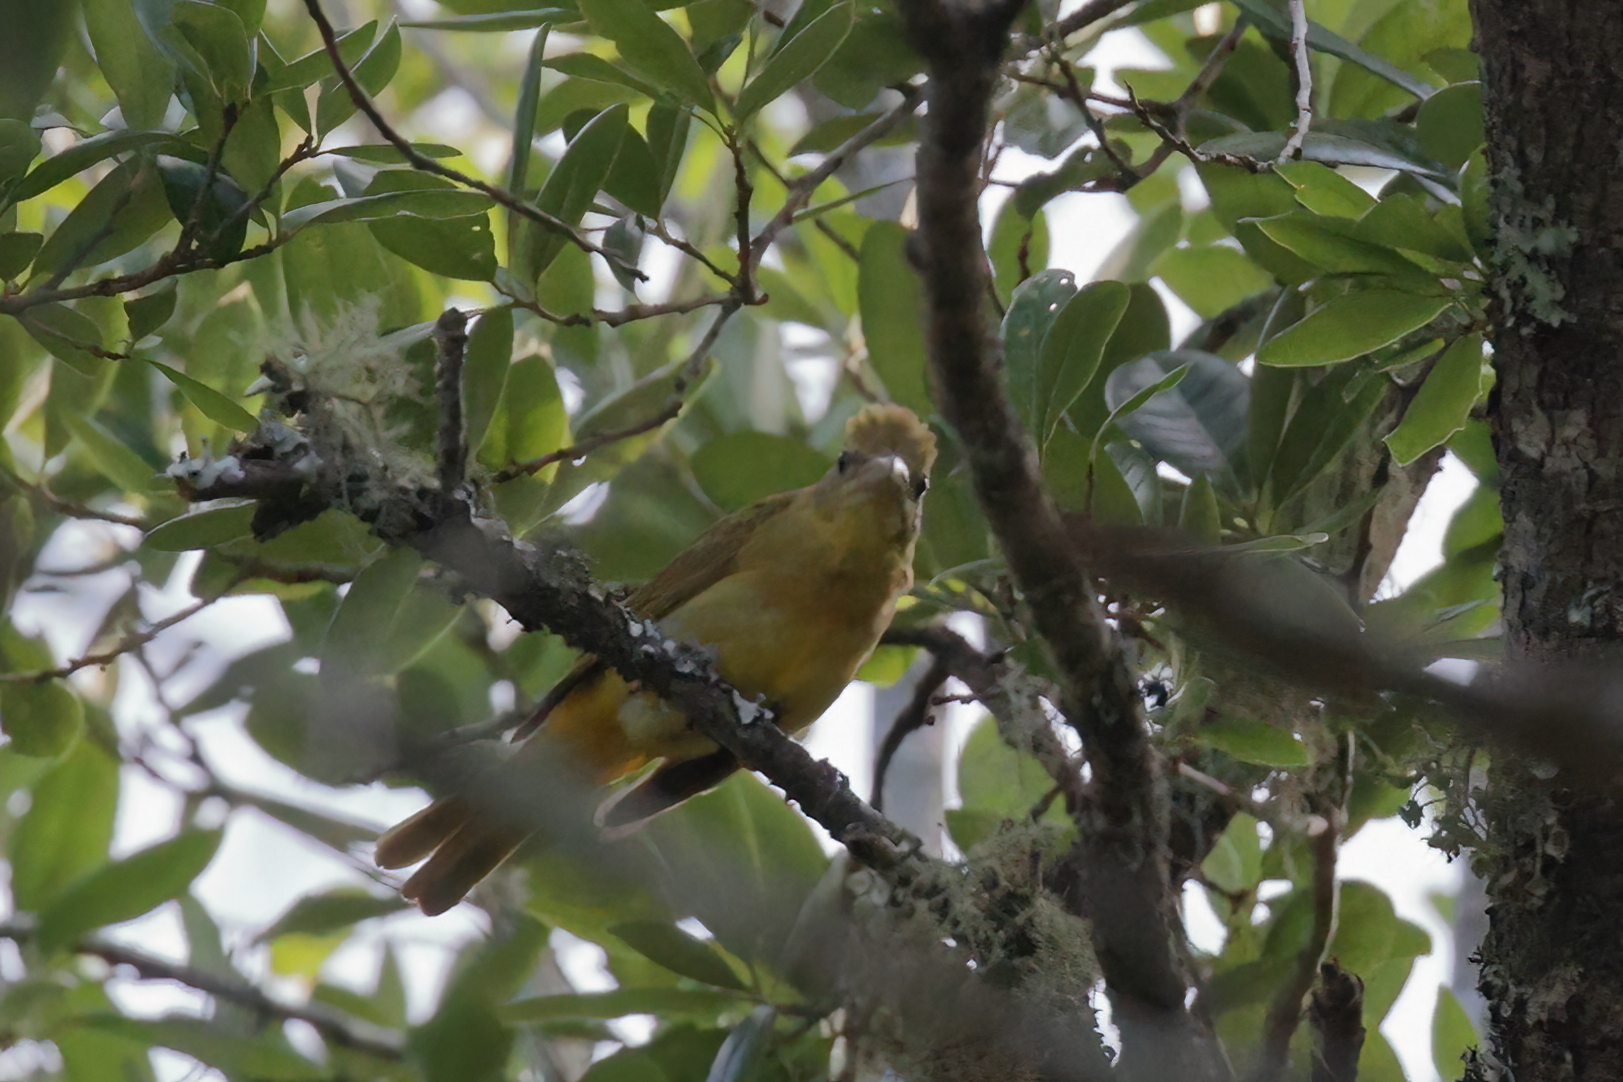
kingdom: Animalia
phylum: Chordata
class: Aves
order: Passeriformes
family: Cardinalidae
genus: Piranga
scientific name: Piranga rubra
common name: Summer tanager
